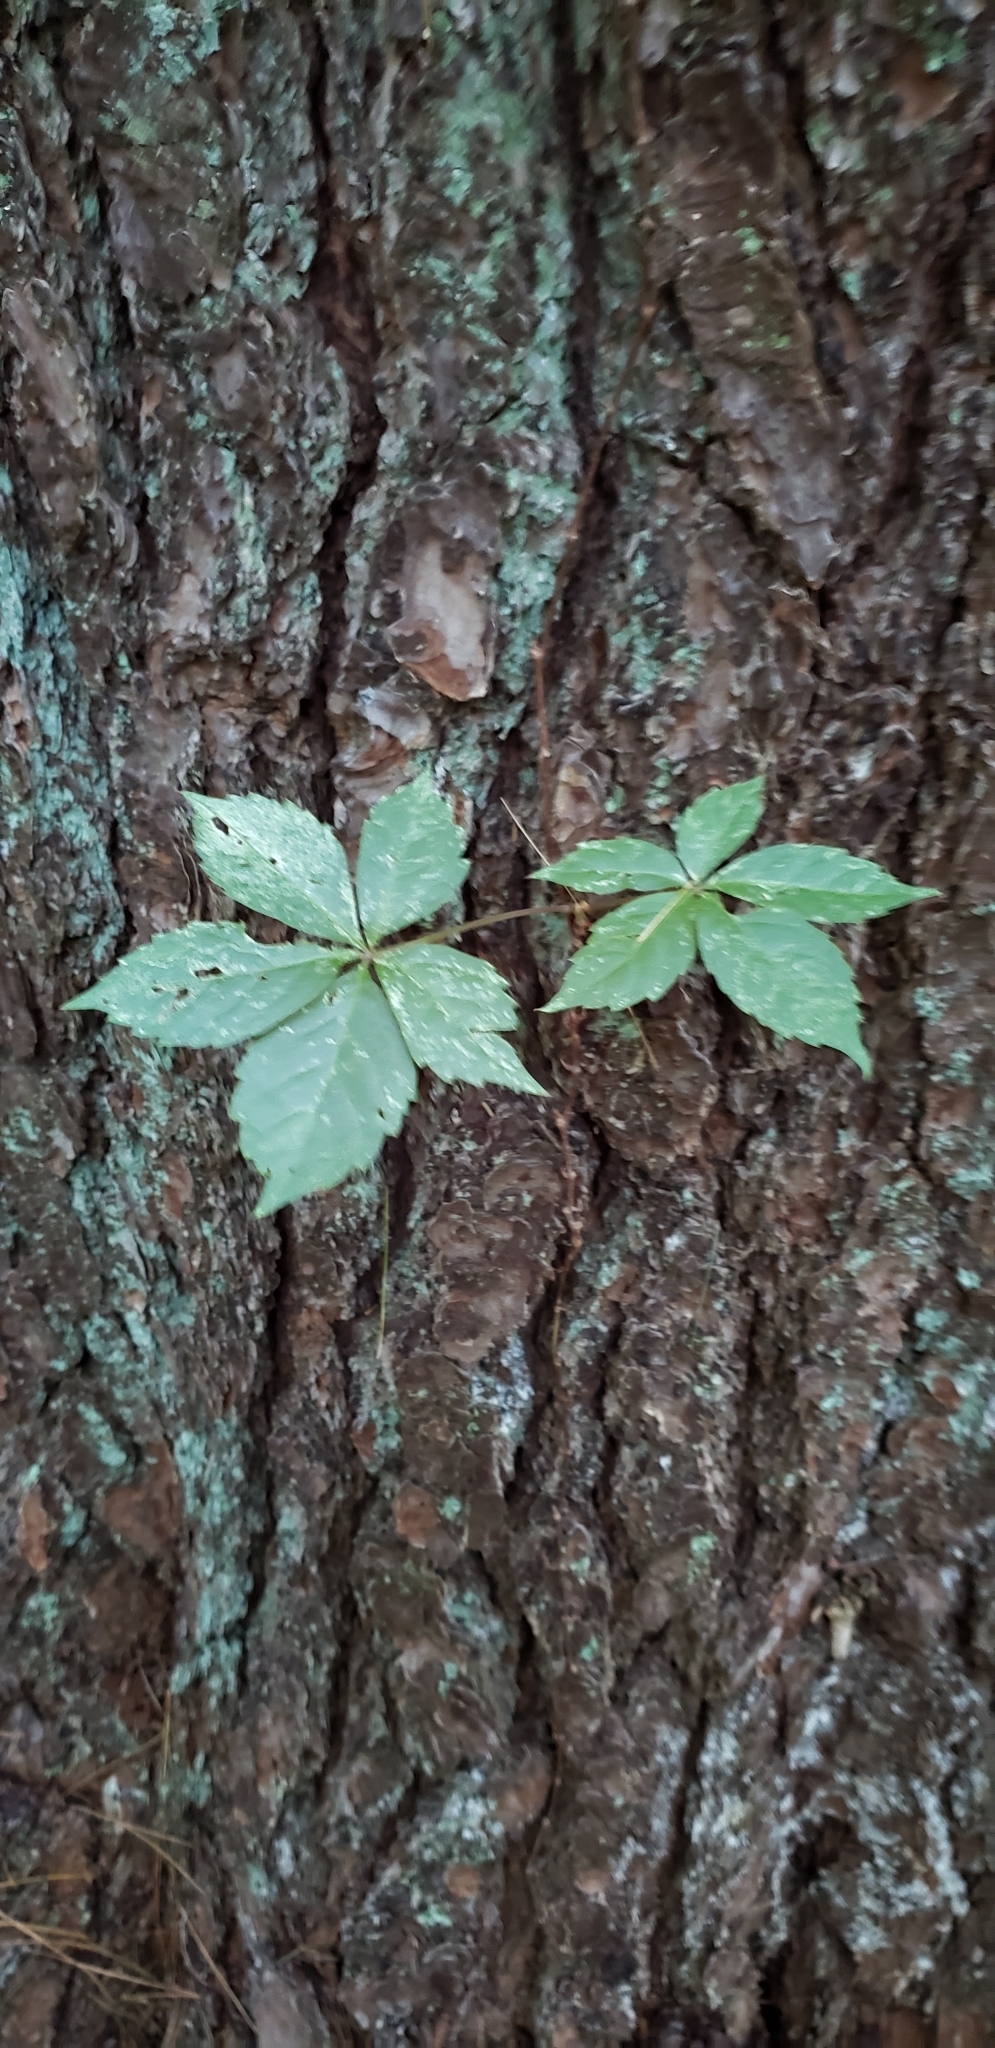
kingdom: Plantae
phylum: Tracheophyta
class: Magnoliopsida
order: Vitales
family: Vitaceae
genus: Parthenocissus
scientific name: Parthenocissus quinquefolia
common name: Virginia-creeper
